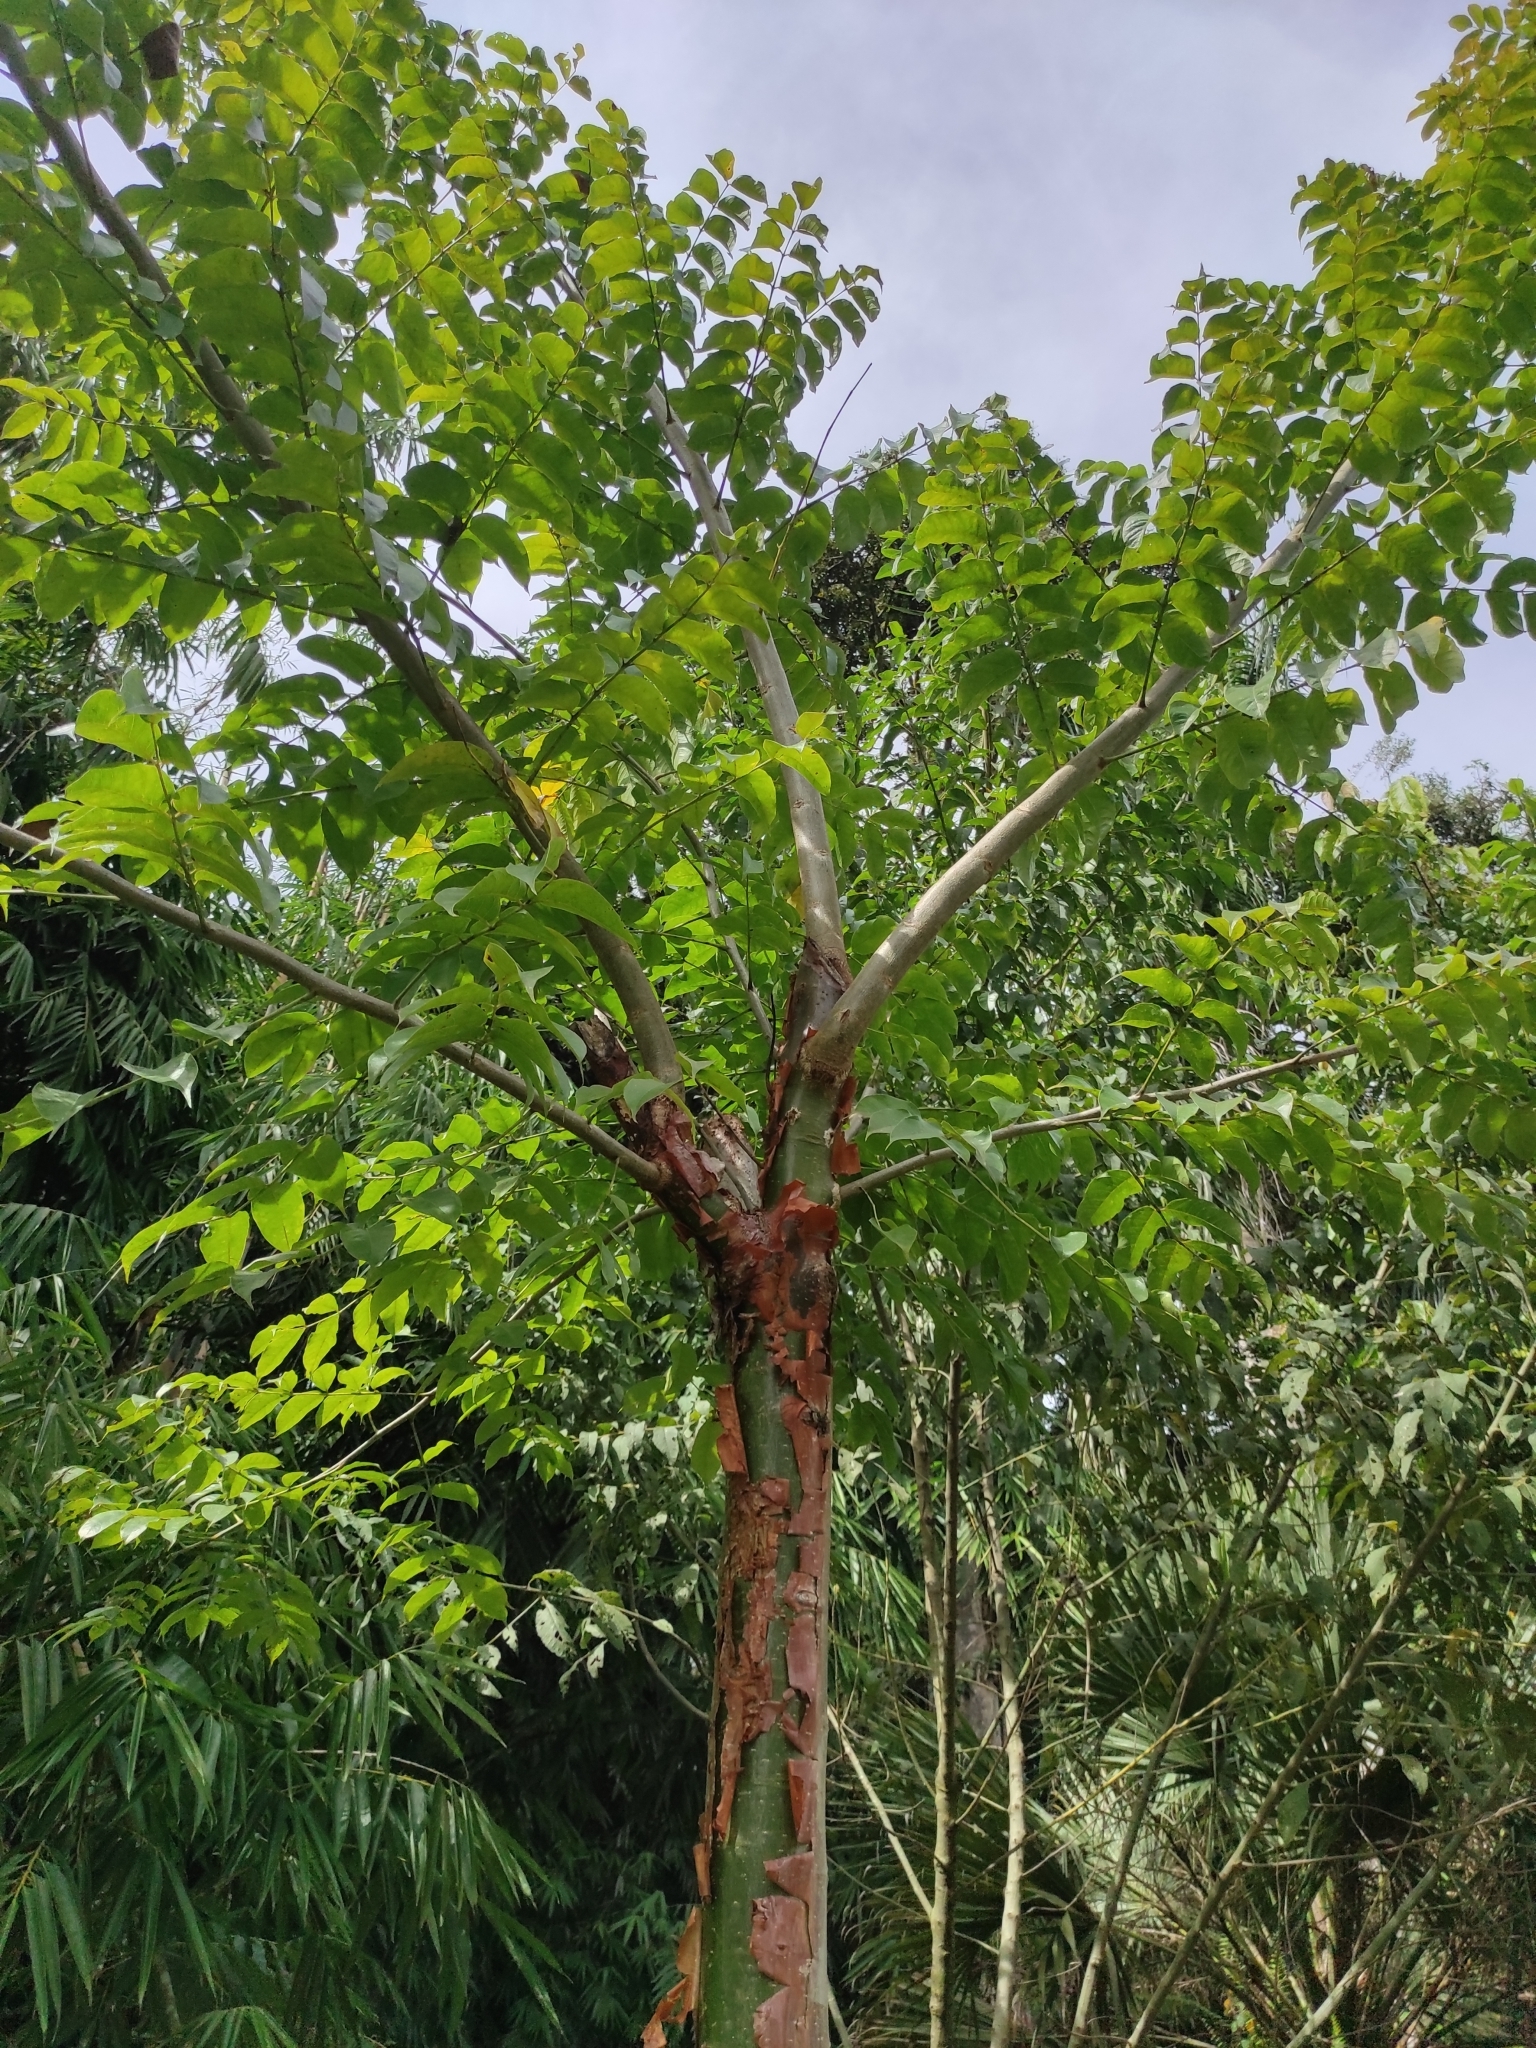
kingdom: Plantae
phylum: Tracheophyta
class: Magnoliopsida
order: Sapindales
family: Burseraceae
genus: Bursera
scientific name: Bursera simaruba
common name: Turpentine tree
